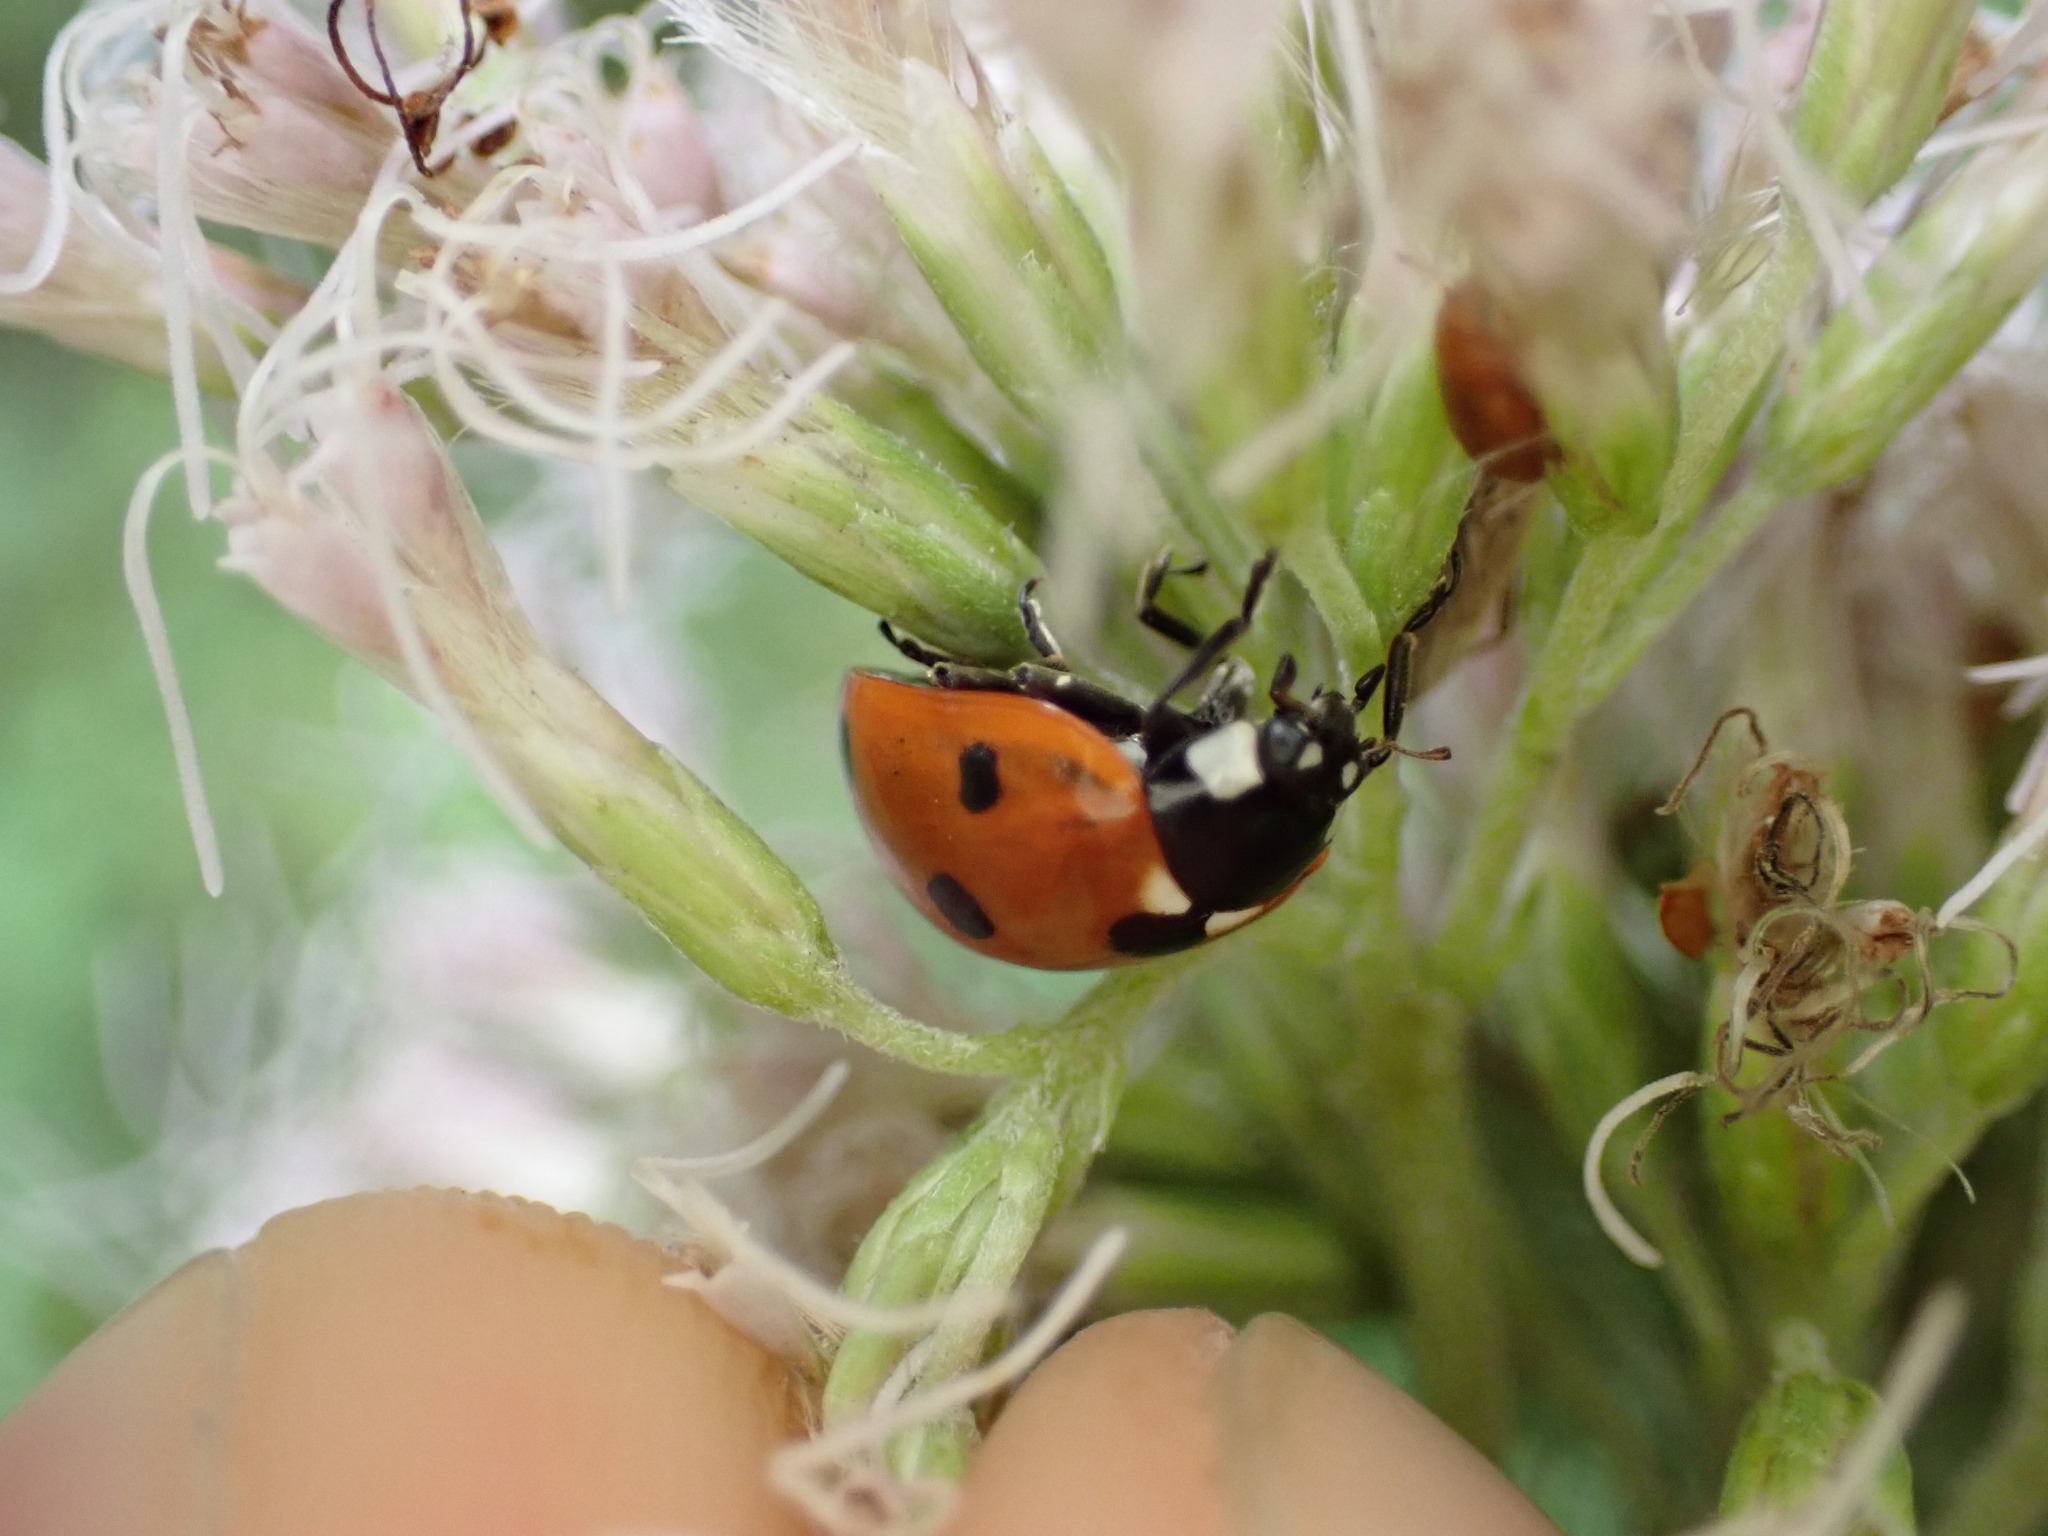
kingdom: Animalia
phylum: Arthropoda
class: Insecta
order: Coleoptera
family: Coccinellidae
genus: Coccinella
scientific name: Coccinella septempunctata
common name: Sevenspotted lady beetle
